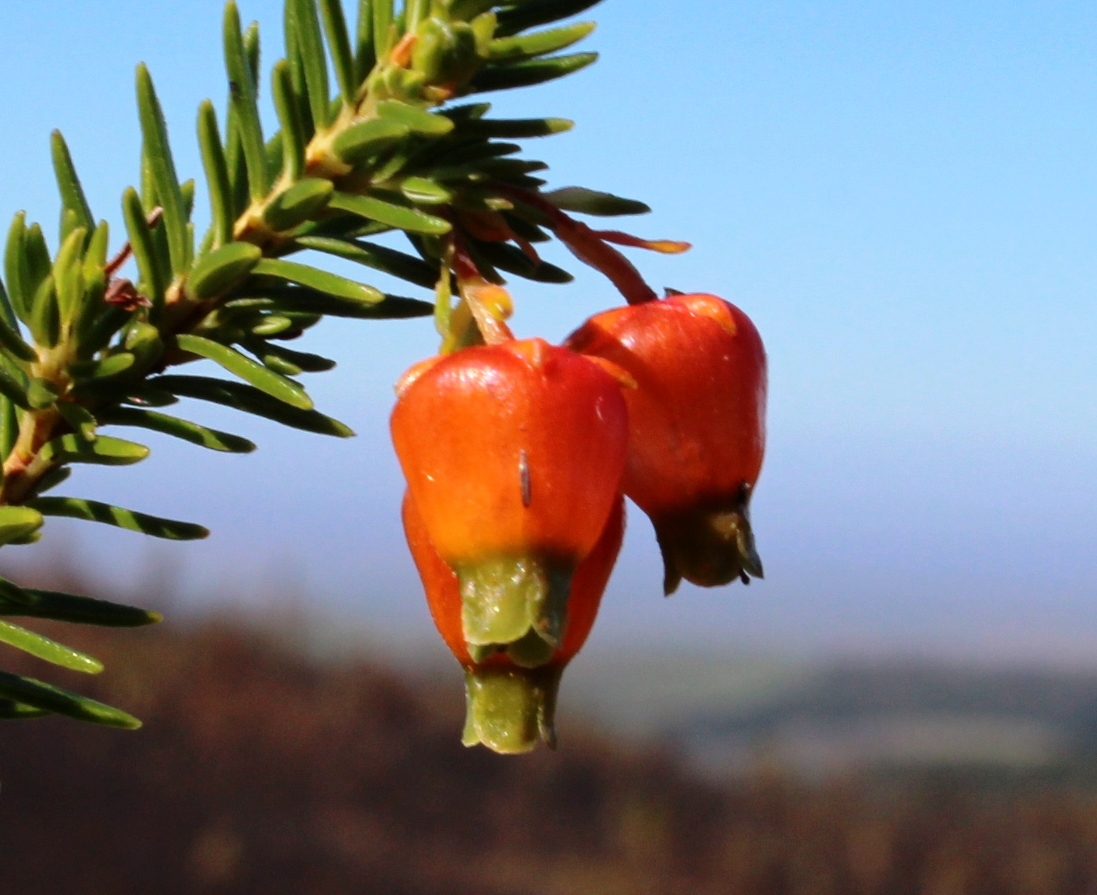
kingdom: Plantae
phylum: Tracheophyta
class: Magnoliopsida
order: Ericales
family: Ericaceae
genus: Erica
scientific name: Erica blenna
